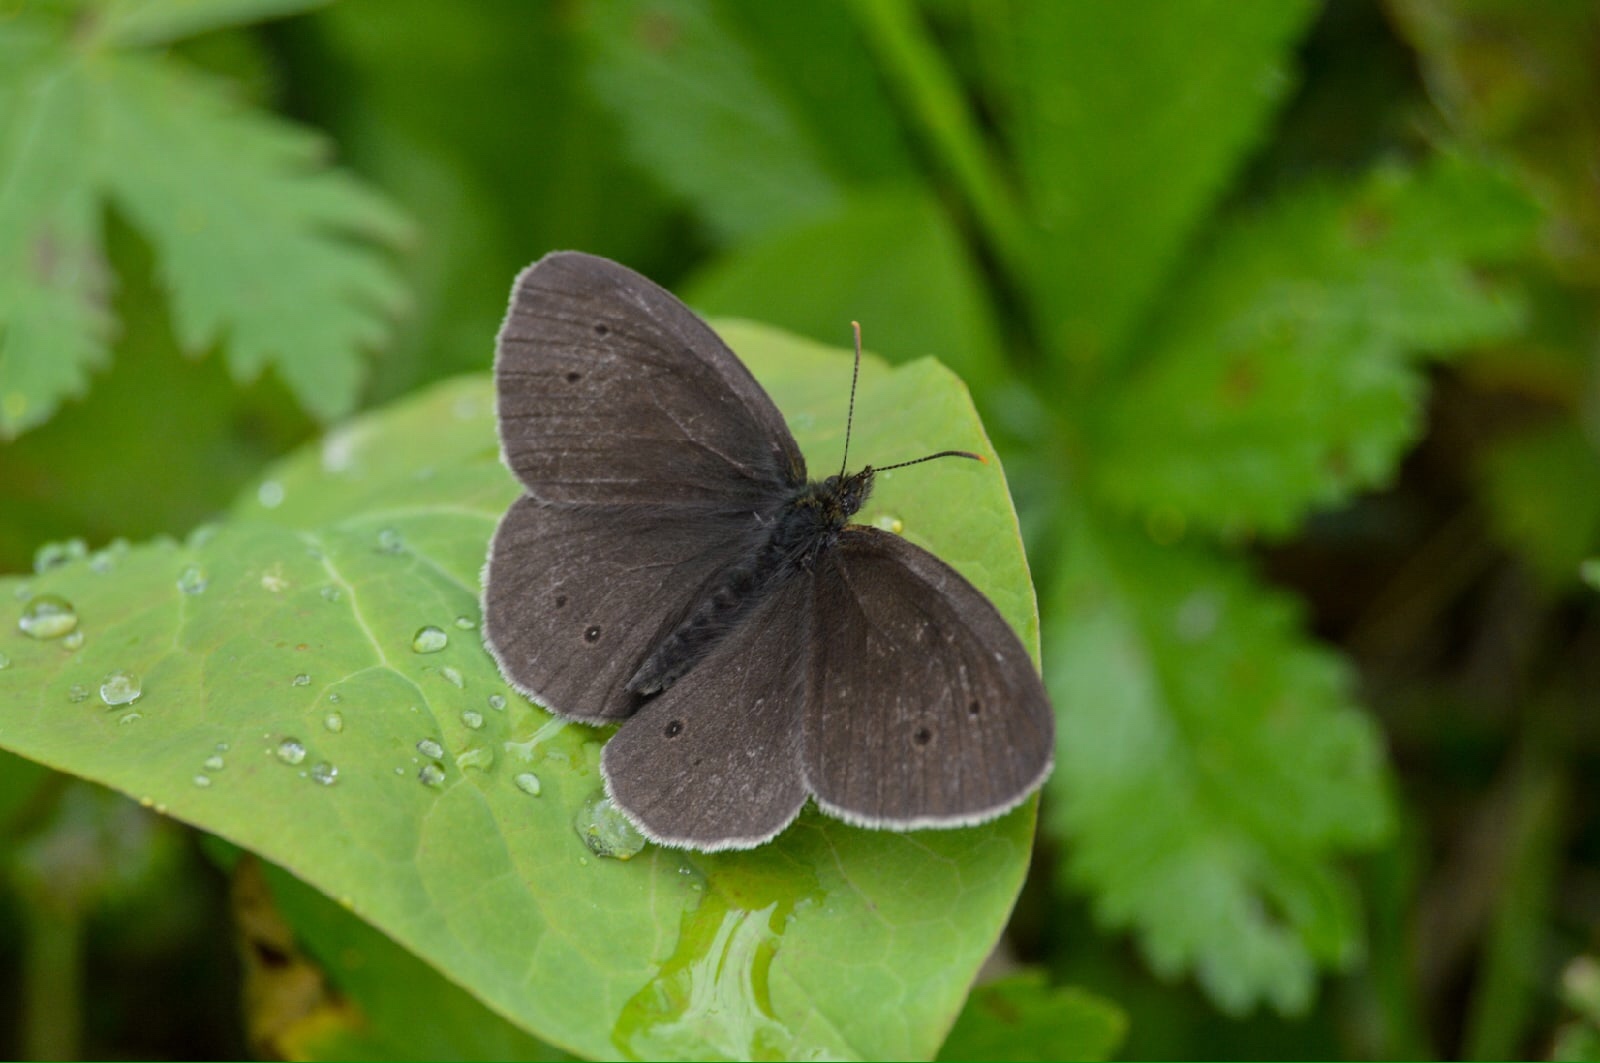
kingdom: Animalia
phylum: Arthropoda
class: Insecta
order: Lepidoptera
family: Nymphalidae
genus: Aphantopus
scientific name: Aphantopus hyperantus
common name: Ringlet
